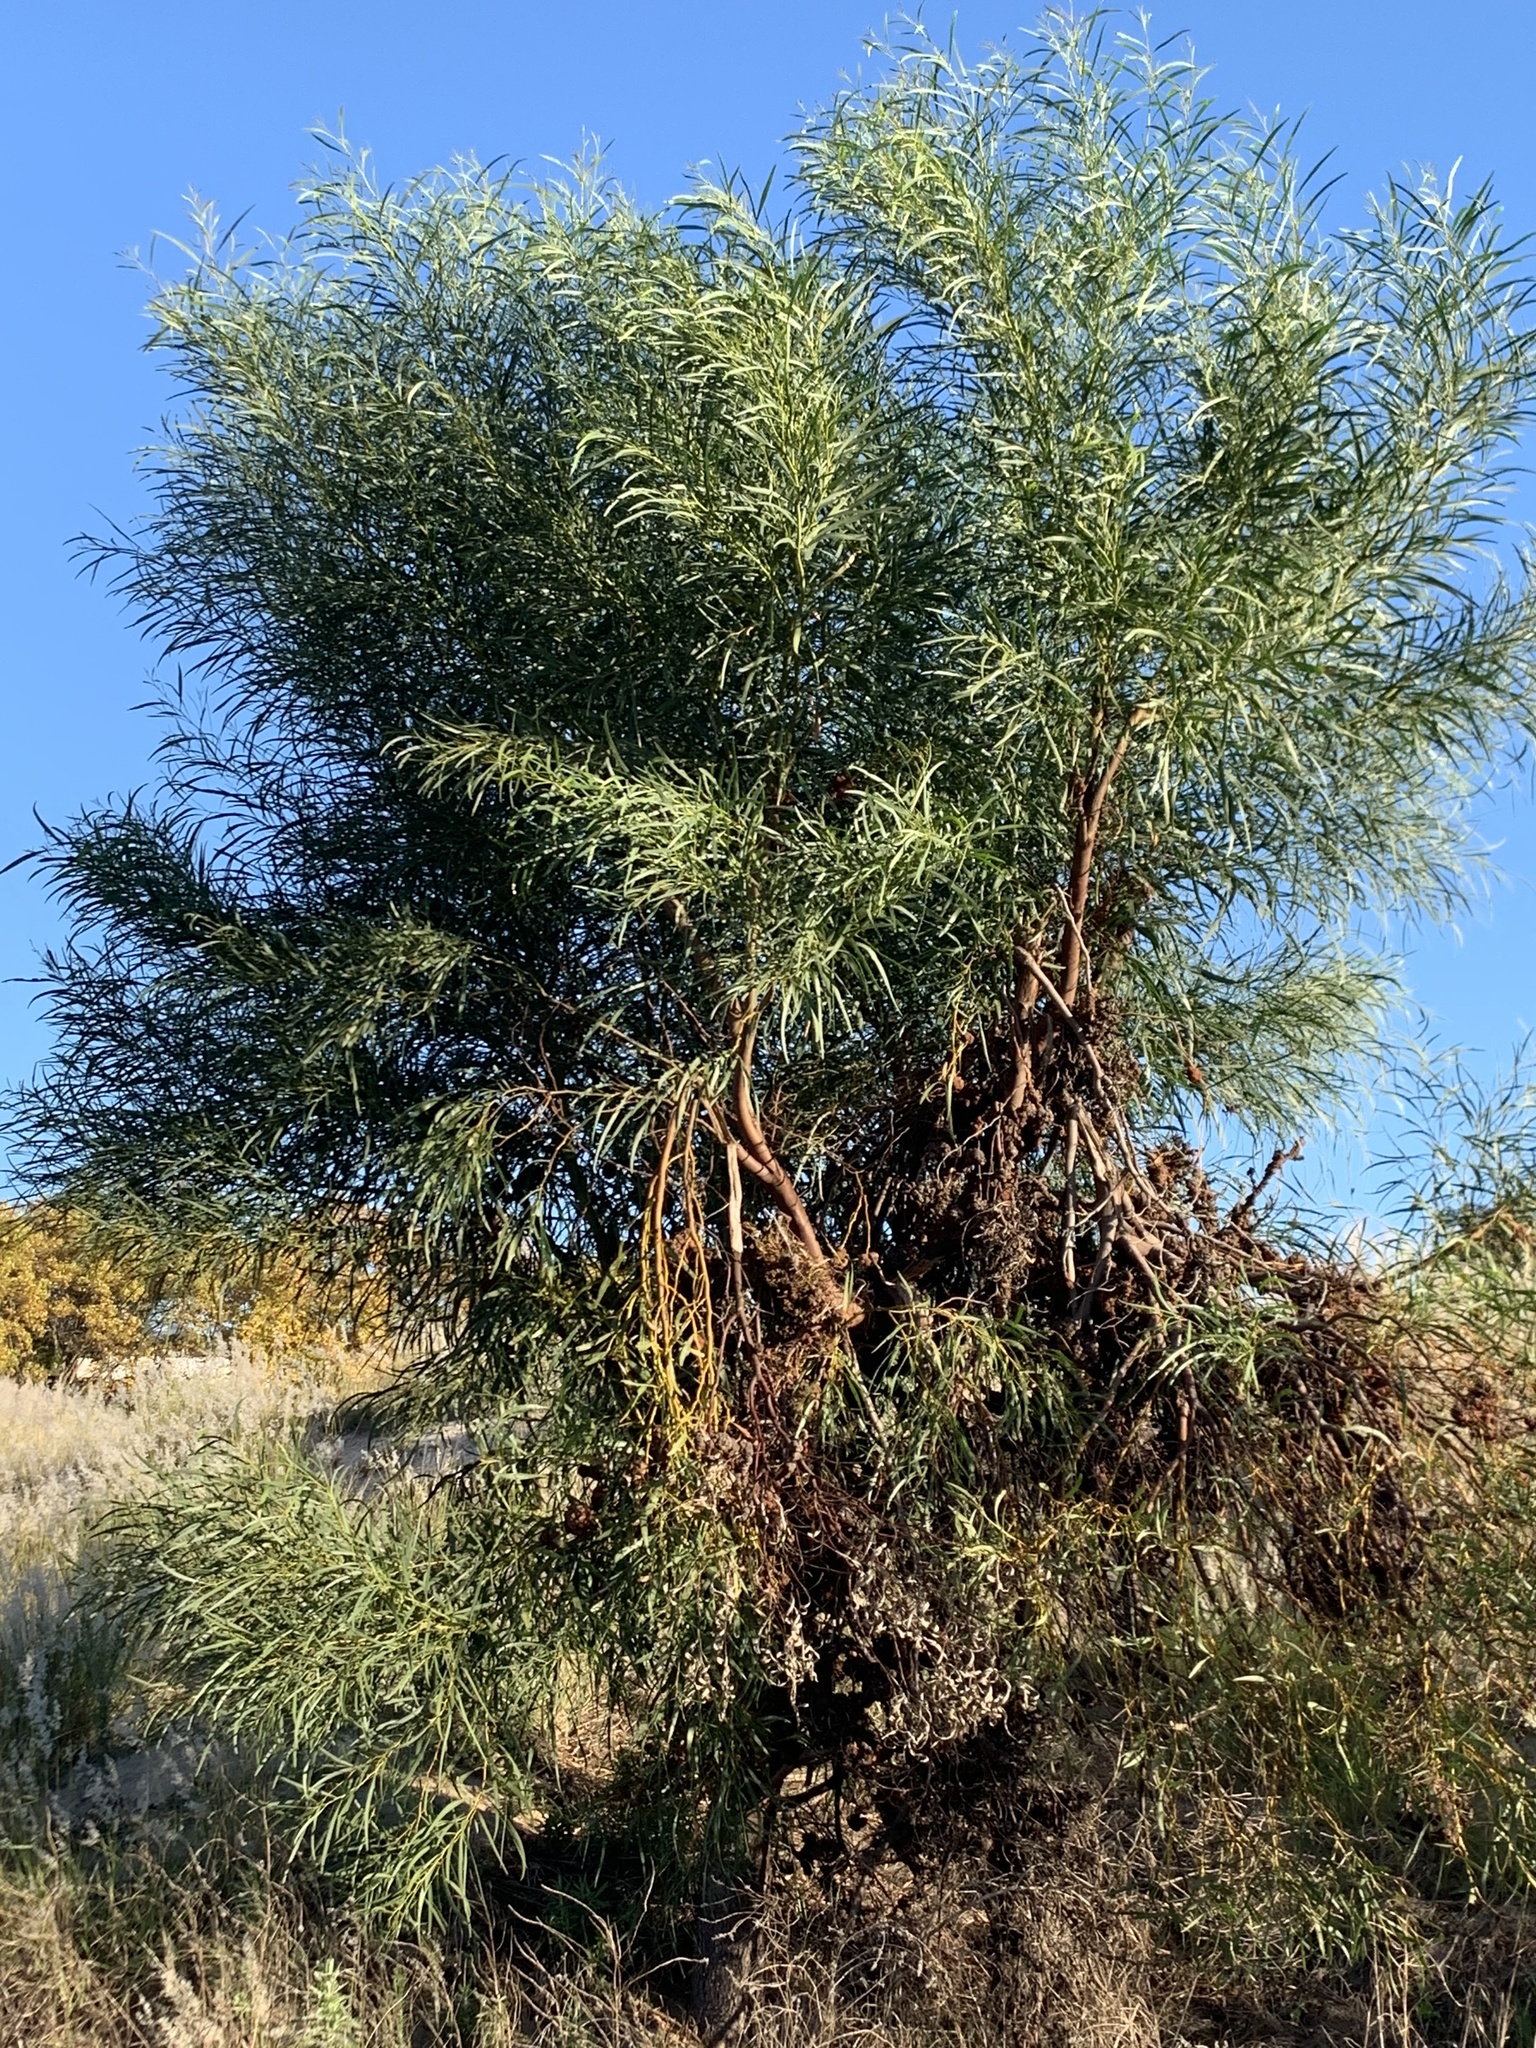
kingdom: Plantae
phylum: Tracheophyta
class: Magnoliopsida
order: Fabales
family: Fabaceae
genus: Acacia
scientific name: Acacia saligna
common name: Orange wattle
